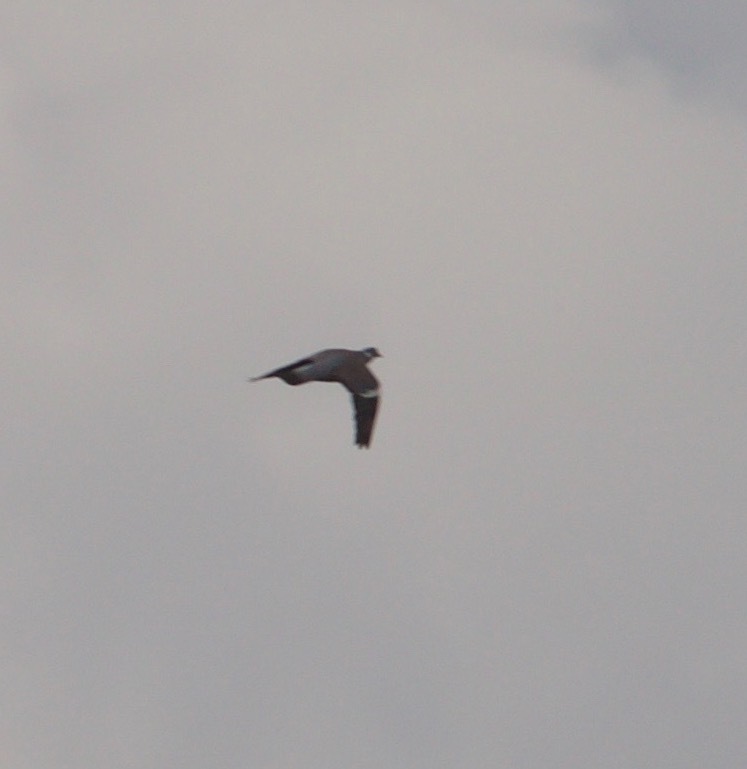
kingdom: Animalia
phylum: Chordata
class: Aves
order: Columbiformes
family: Columbidae
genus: Columba
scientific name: Columba palumbus
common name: Common wood pigeon
